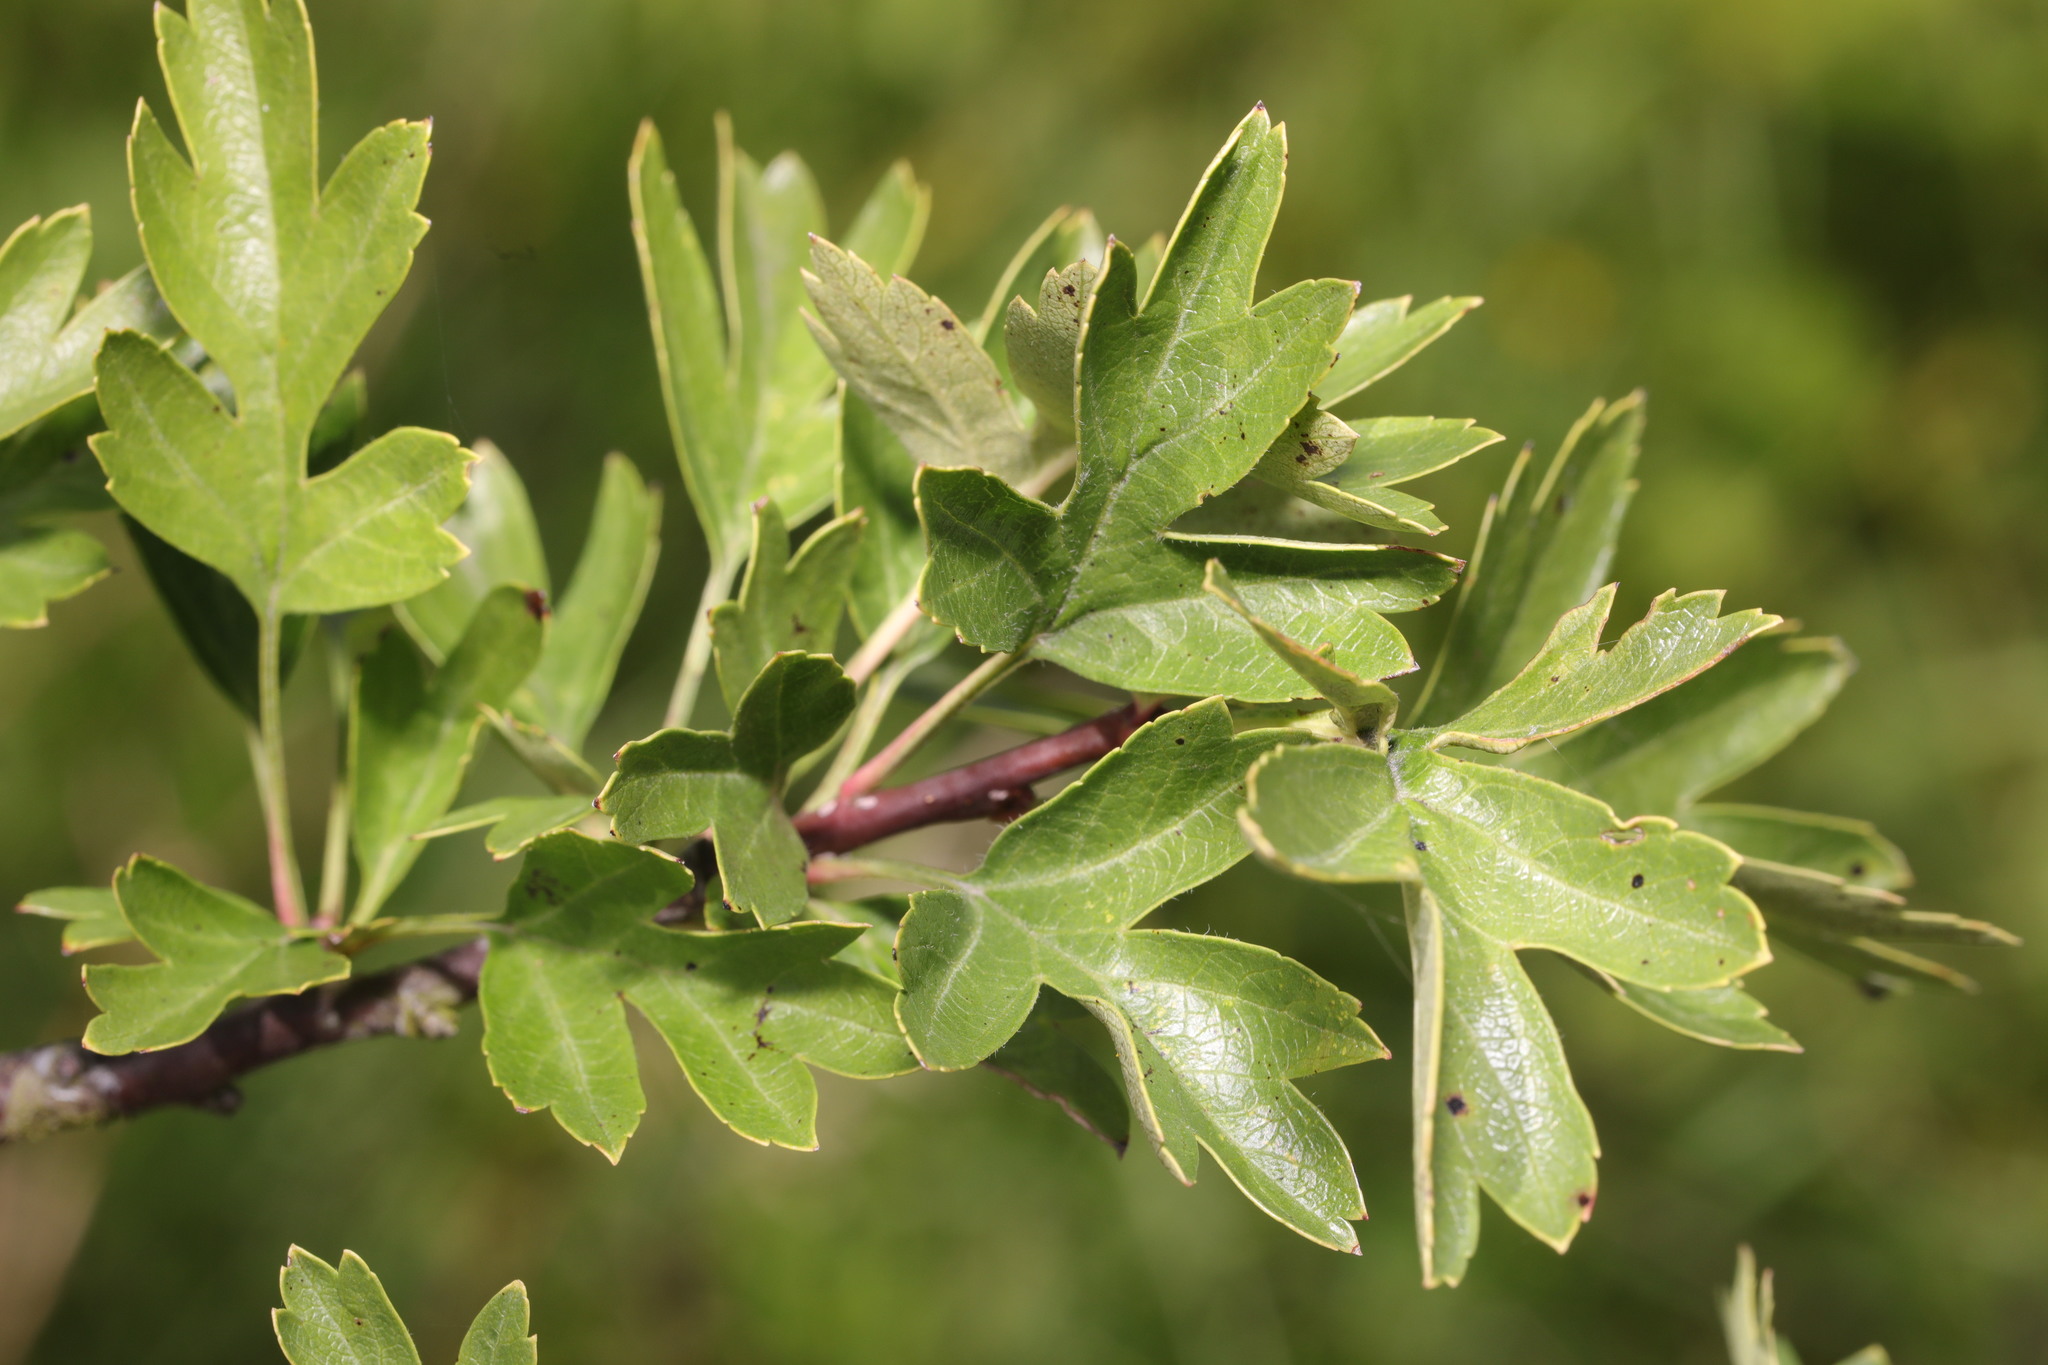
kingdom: Plantae
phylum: Tracheophyta
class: Magnoliopsida
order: Rosales
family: Rosaceae
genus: Crataegus
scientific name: Crataegus monogyna
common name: Hawthorn
